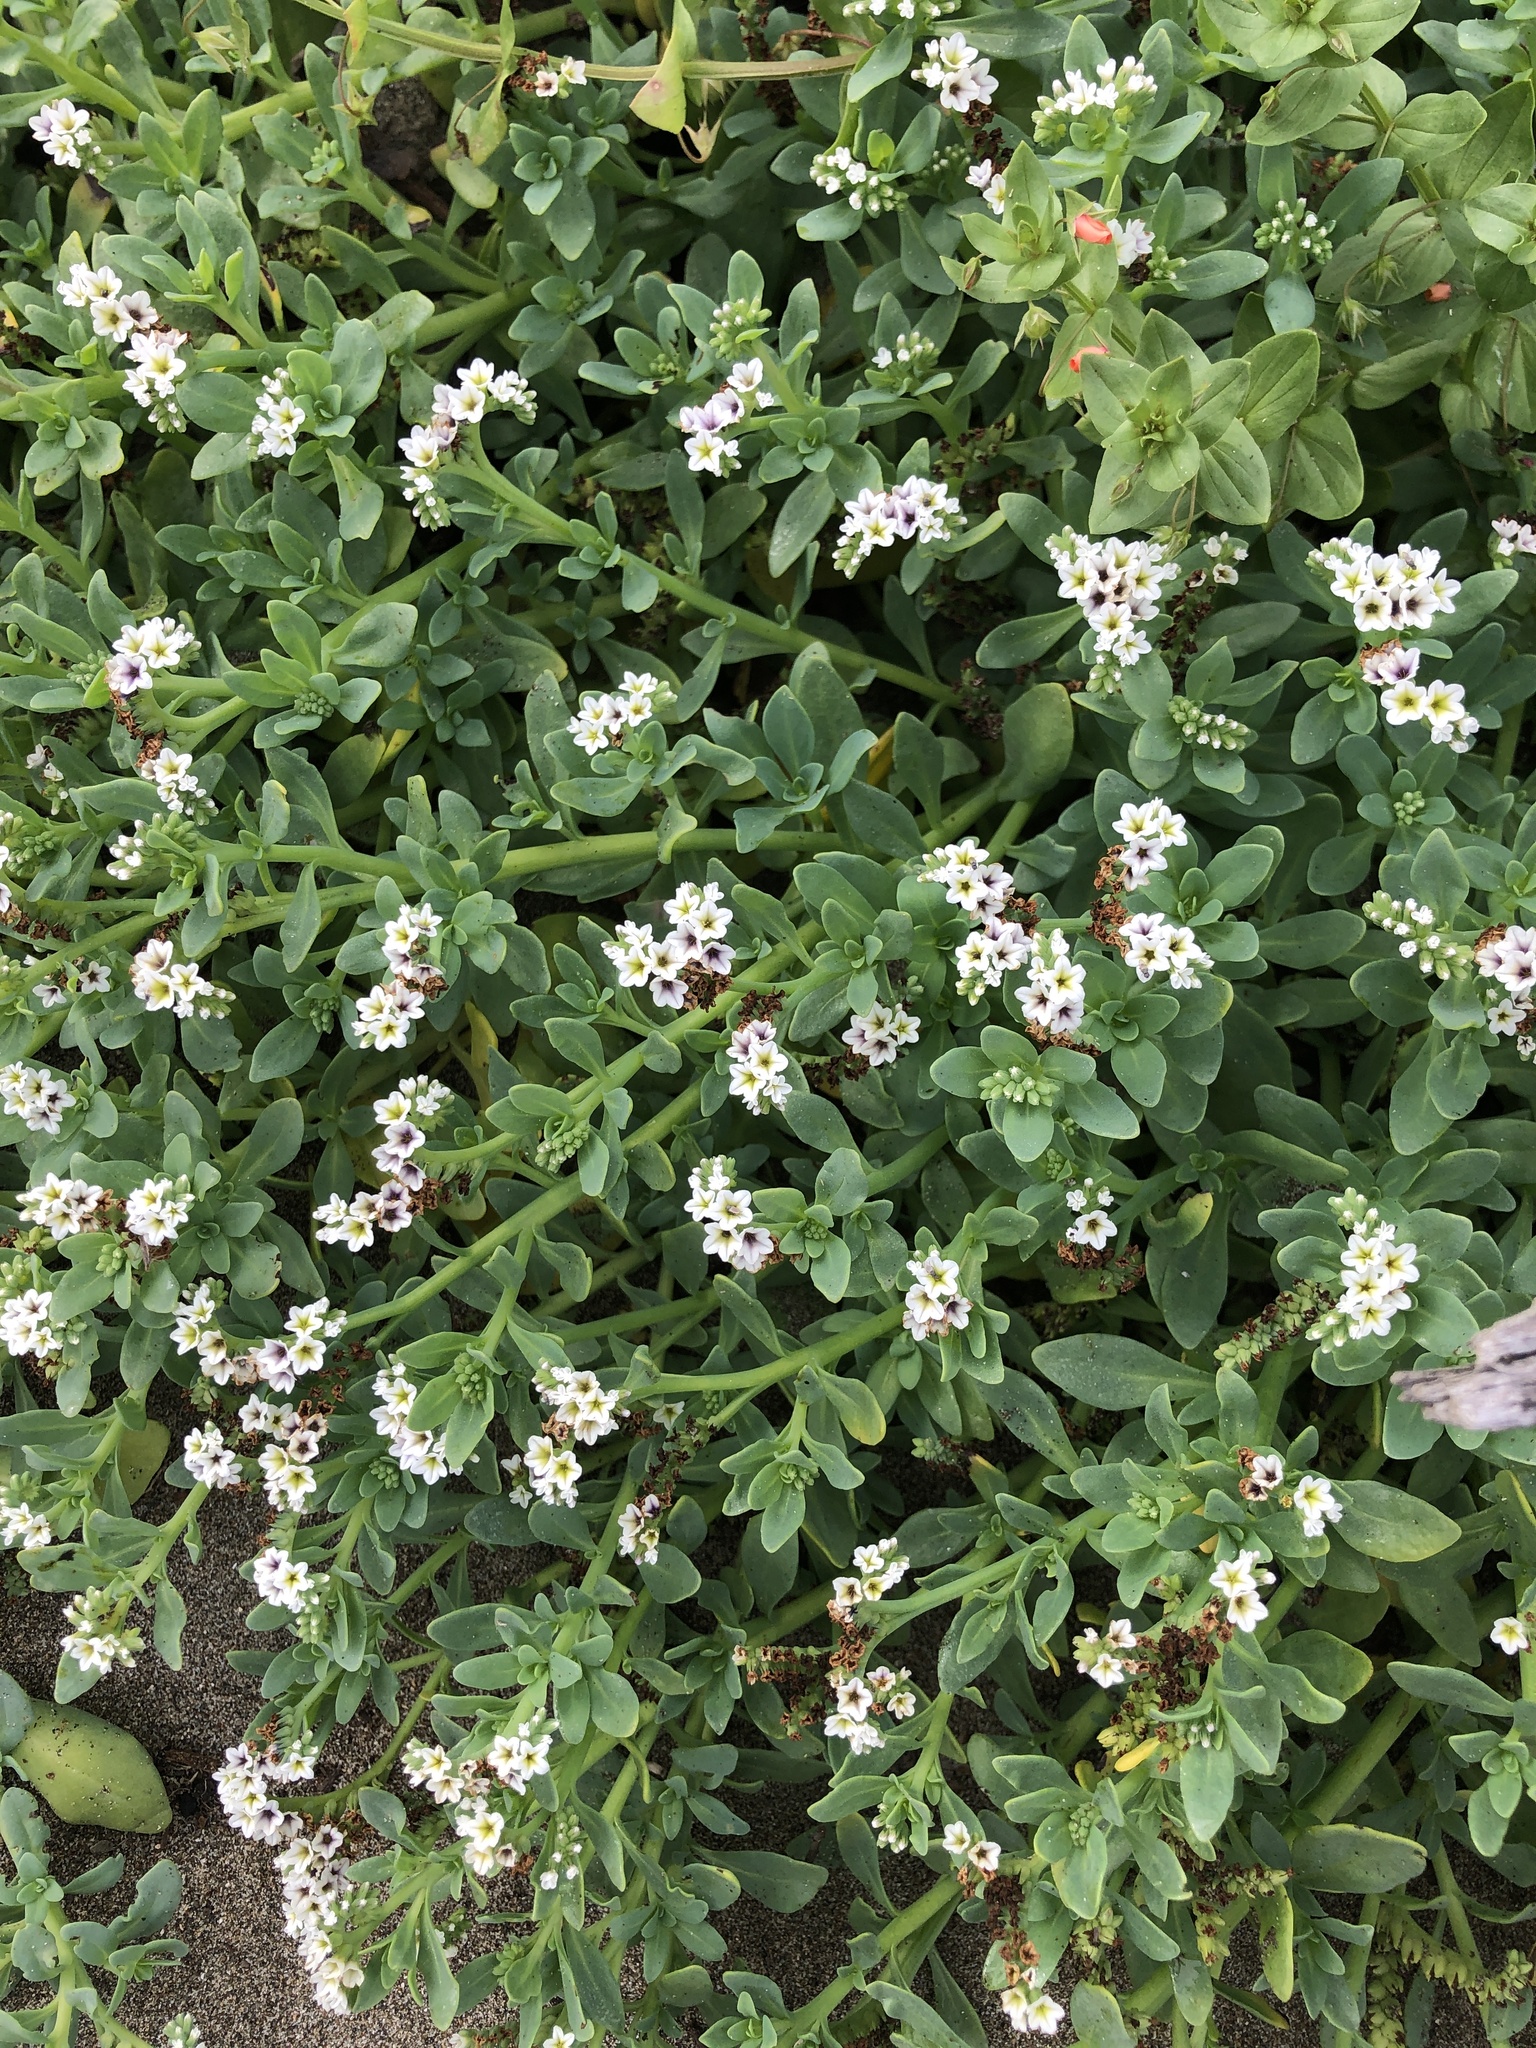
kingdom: Plantae
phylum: Tracheophyta
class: Magnoliopsida
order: Boraginales
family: Heliotropiaceae
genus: Heliotropium
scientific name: Heliotropium curassavicum
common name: Seaside heliotrope
